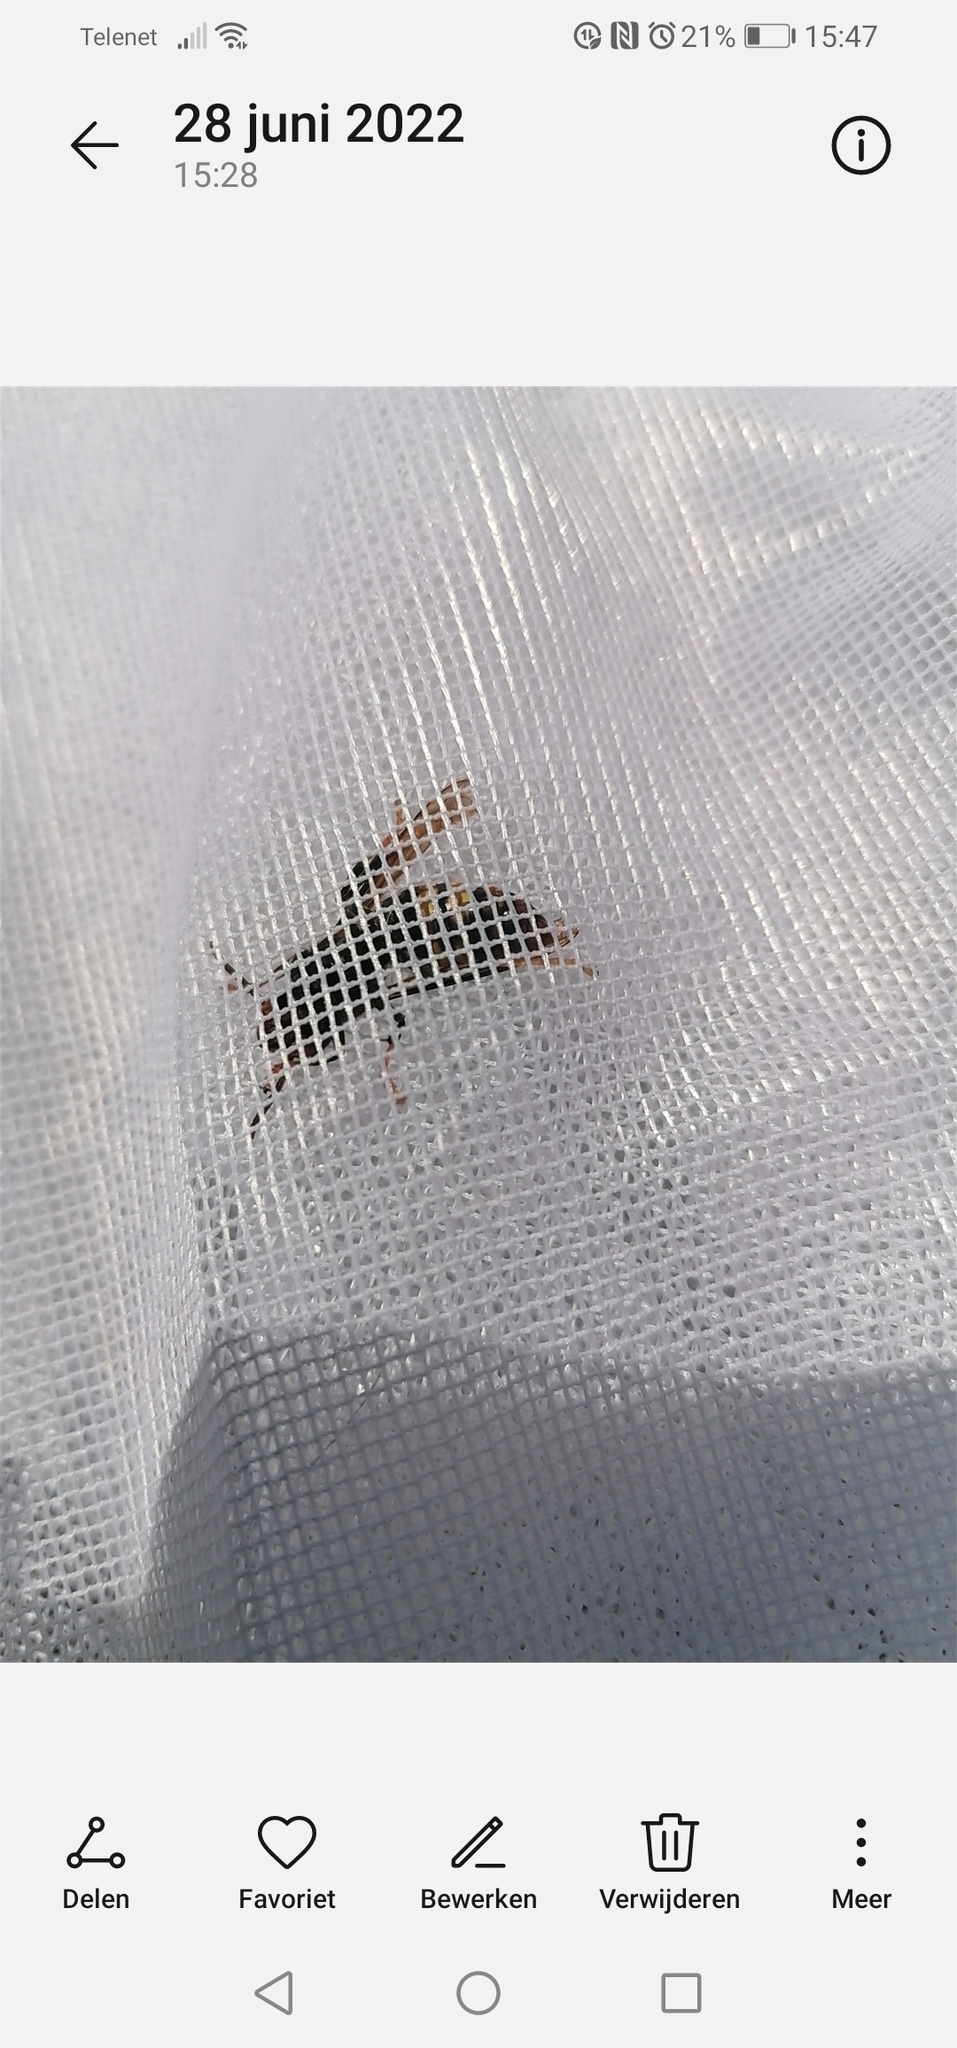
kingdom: Animalia
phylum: Arthropoda
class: Insecta
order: Hymenoptera
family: Vespidae
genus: Vespa
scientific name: Vespa velutina
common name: Asian hornet
